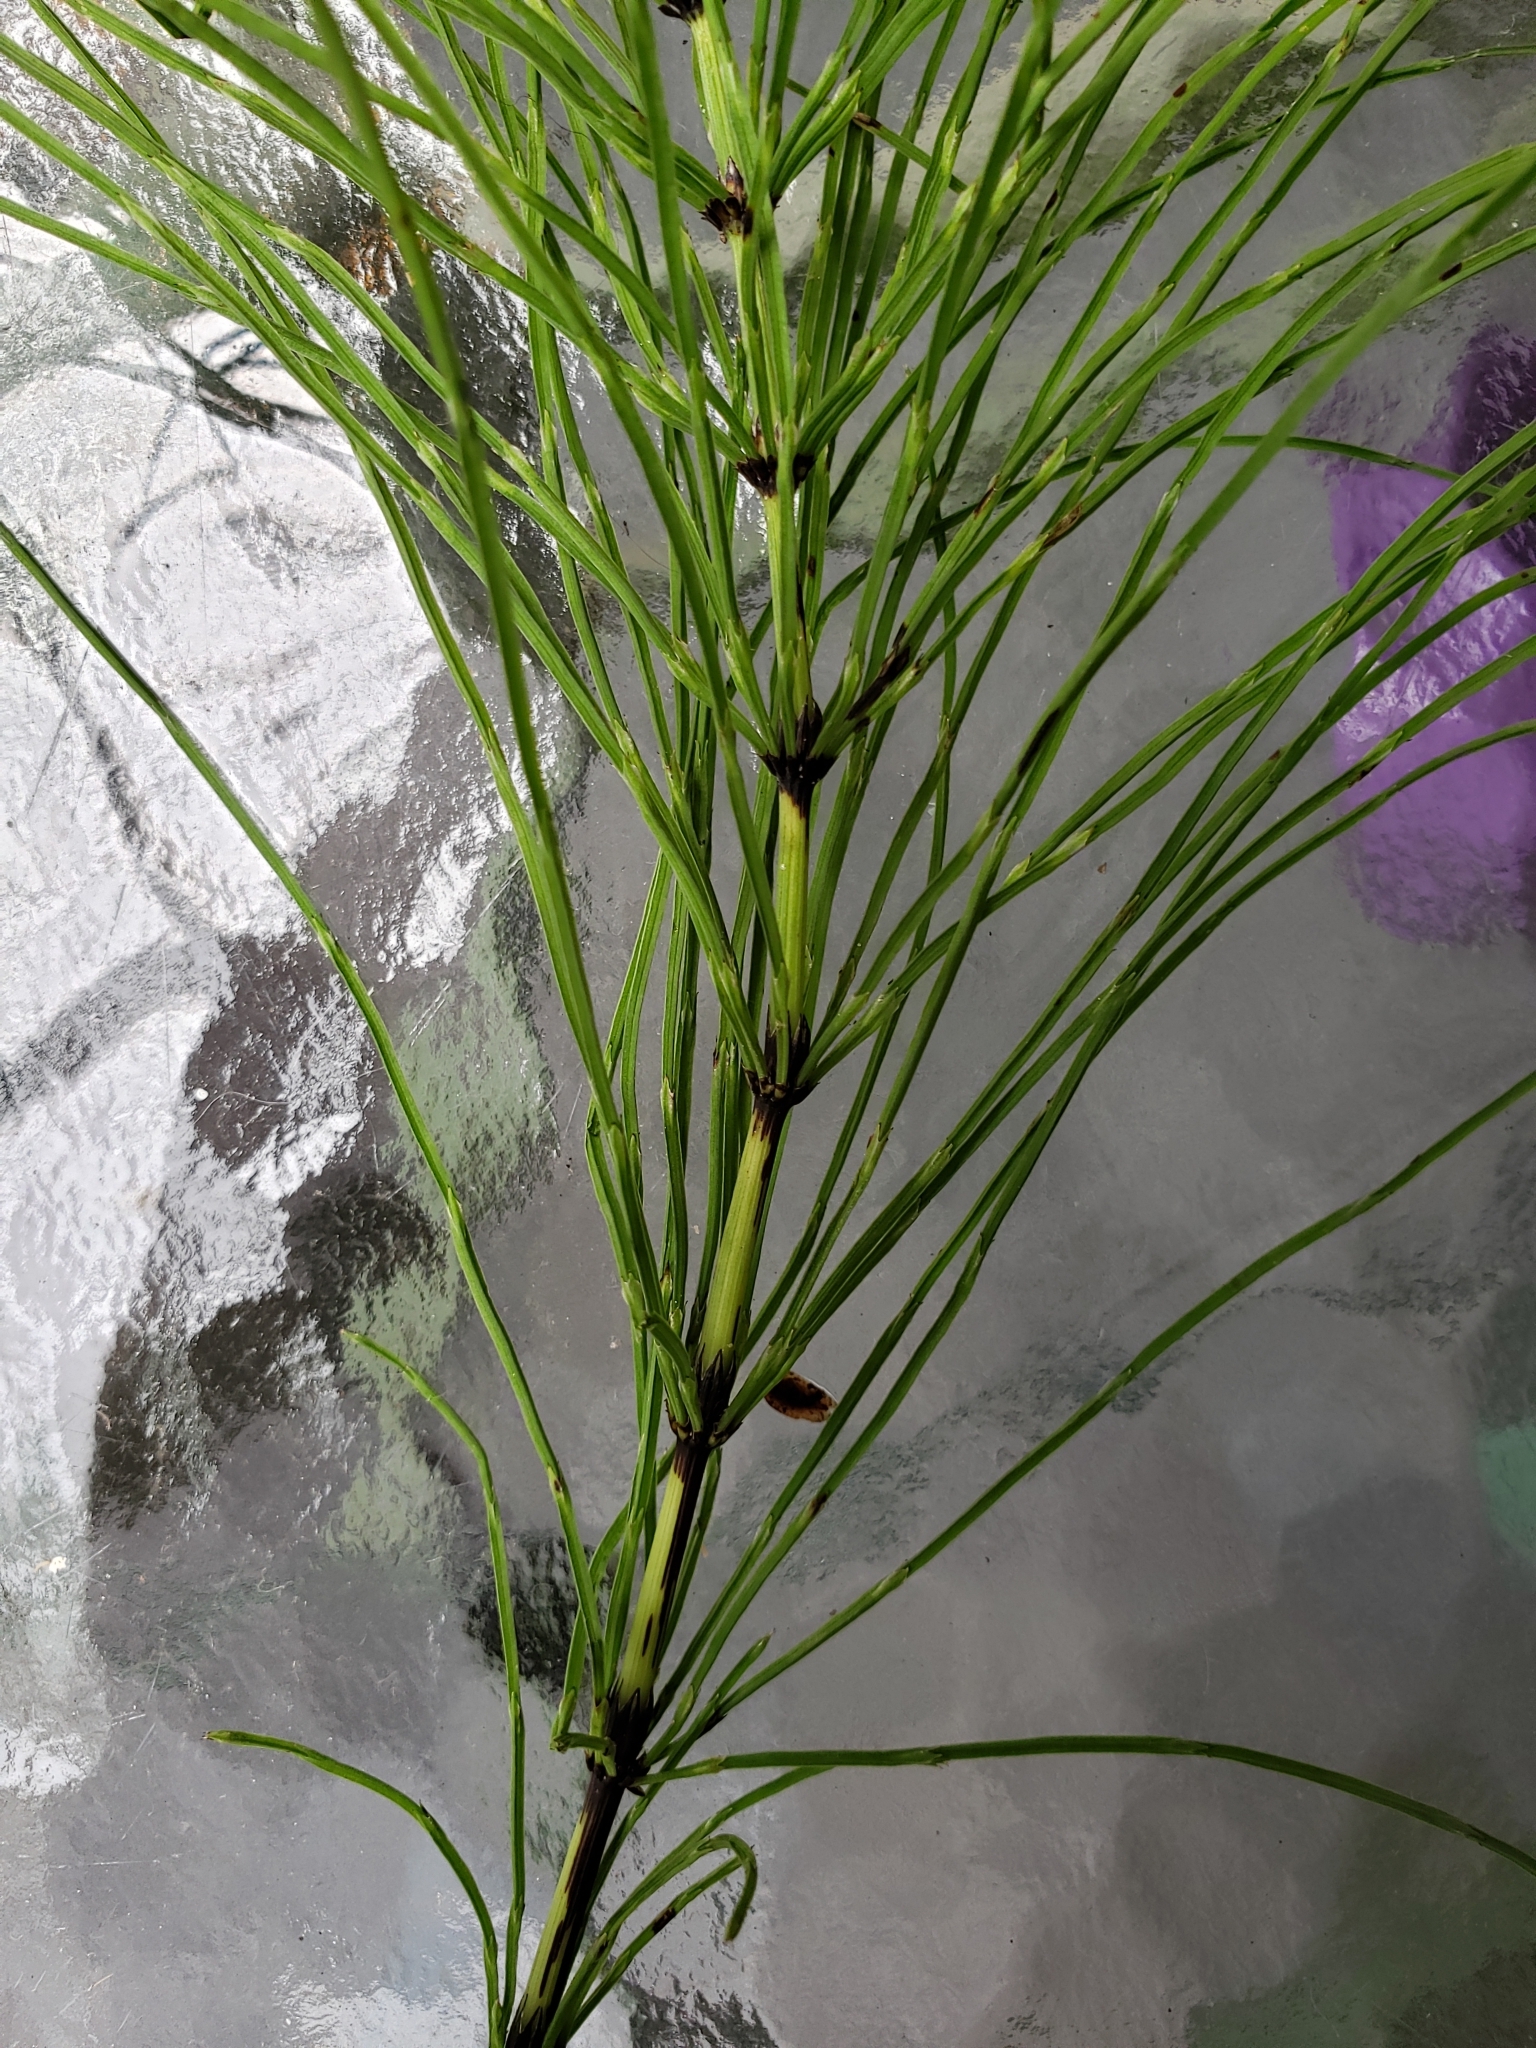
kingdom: Plantae
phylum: Tracheophyta
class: Polypodiopsida
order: Equisetales
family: Equisetaceae
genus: Equisetum
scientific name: Equisetum arvense
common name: Field horsetail
